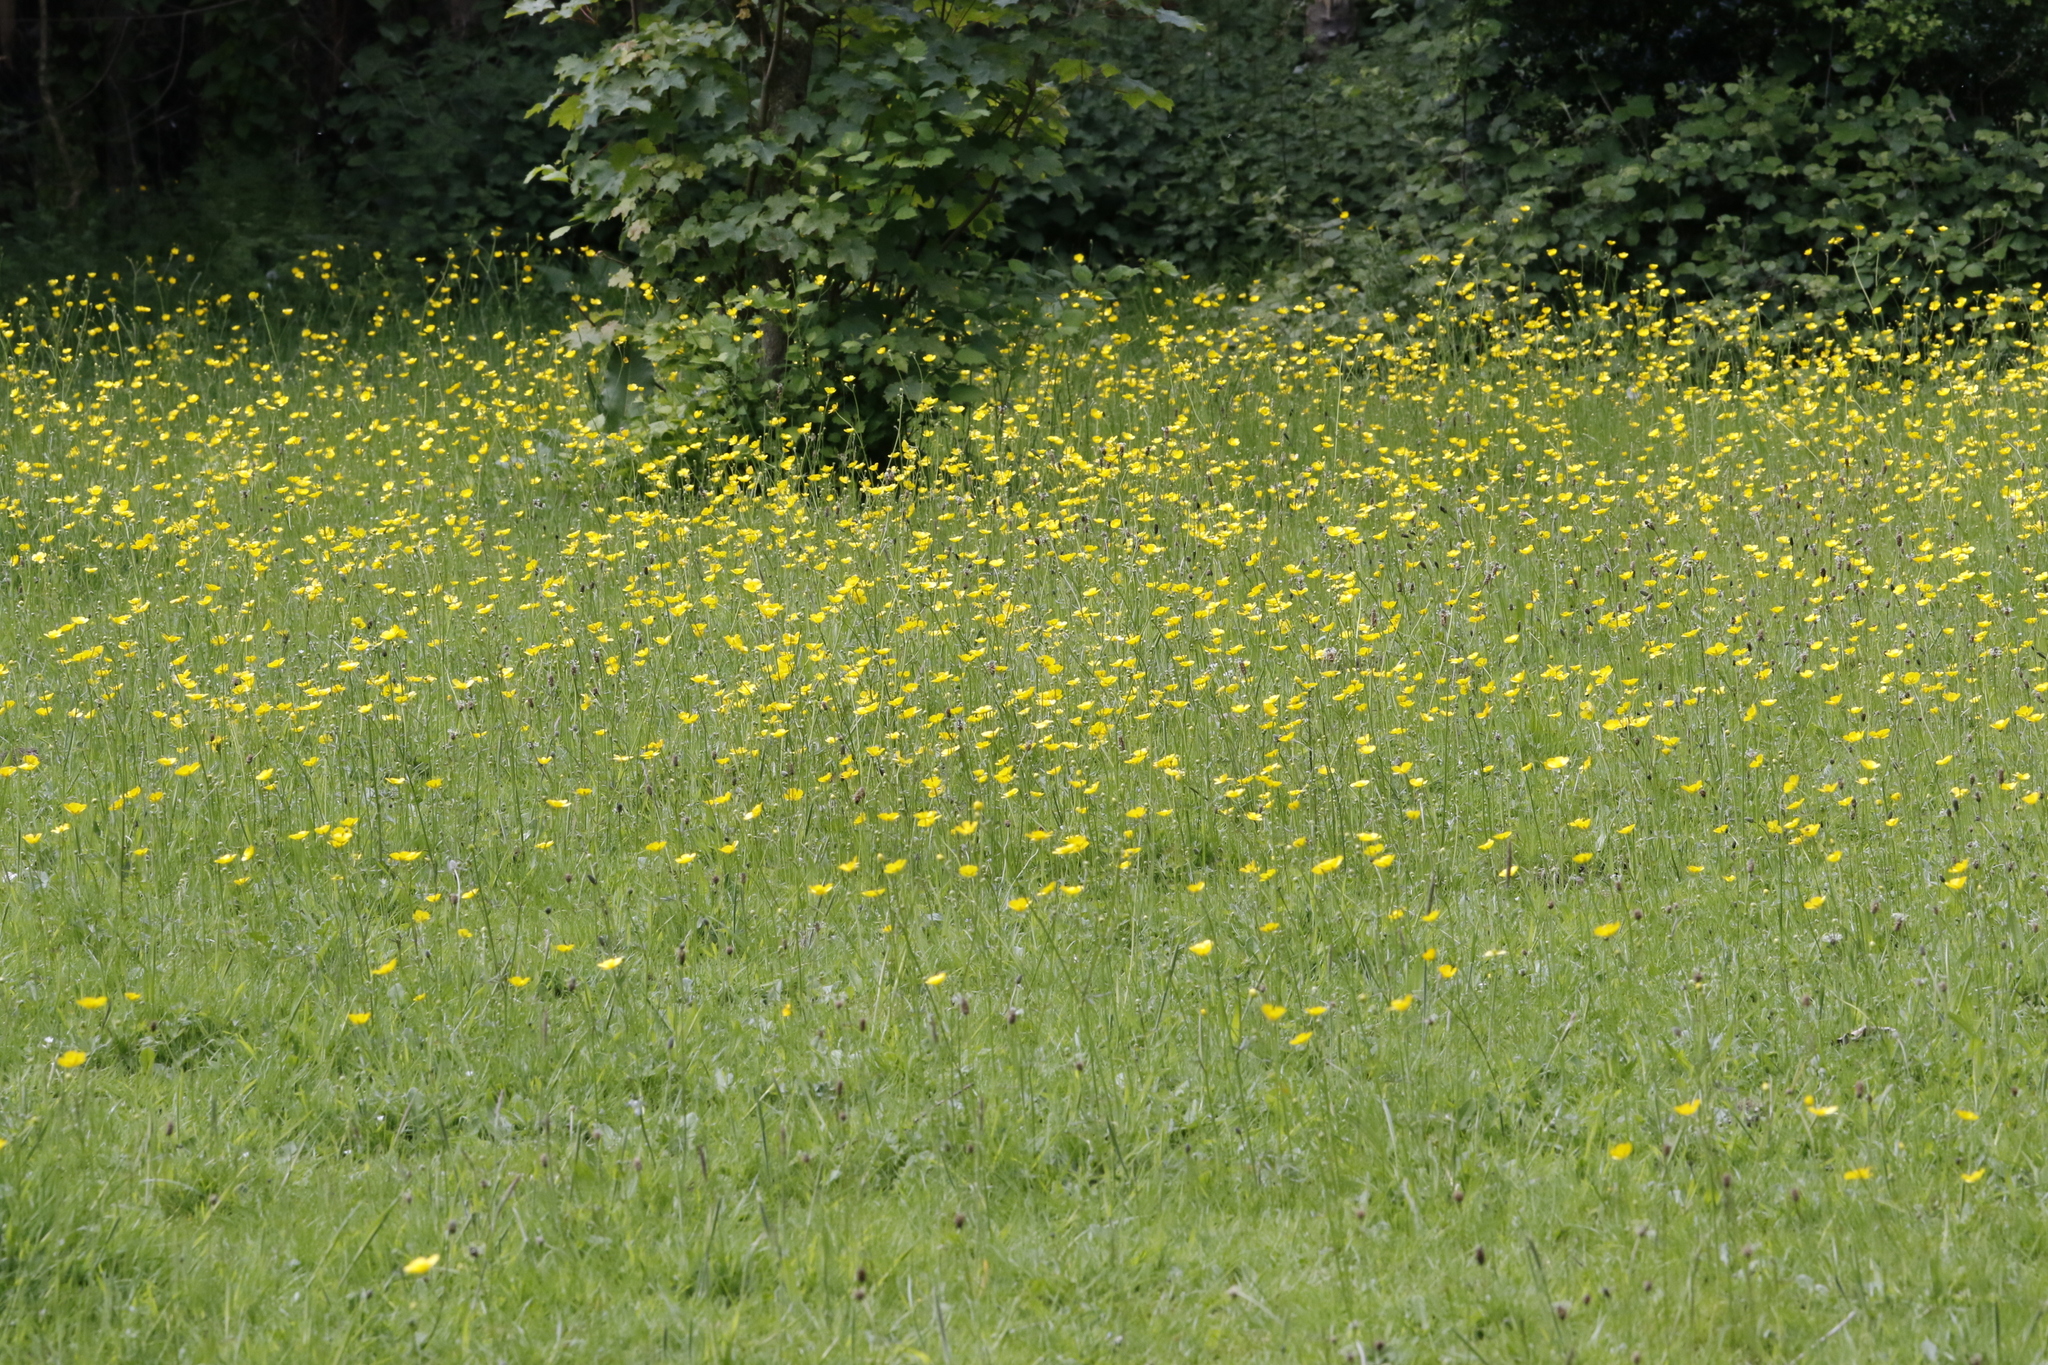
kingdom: Plantae
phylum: Tracheophyta
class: Magnoliopsida
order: Ranunculales
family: Ranunculaceae
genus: Ranunculus
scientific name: Ranunculus acris
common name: Meadow buttercup
